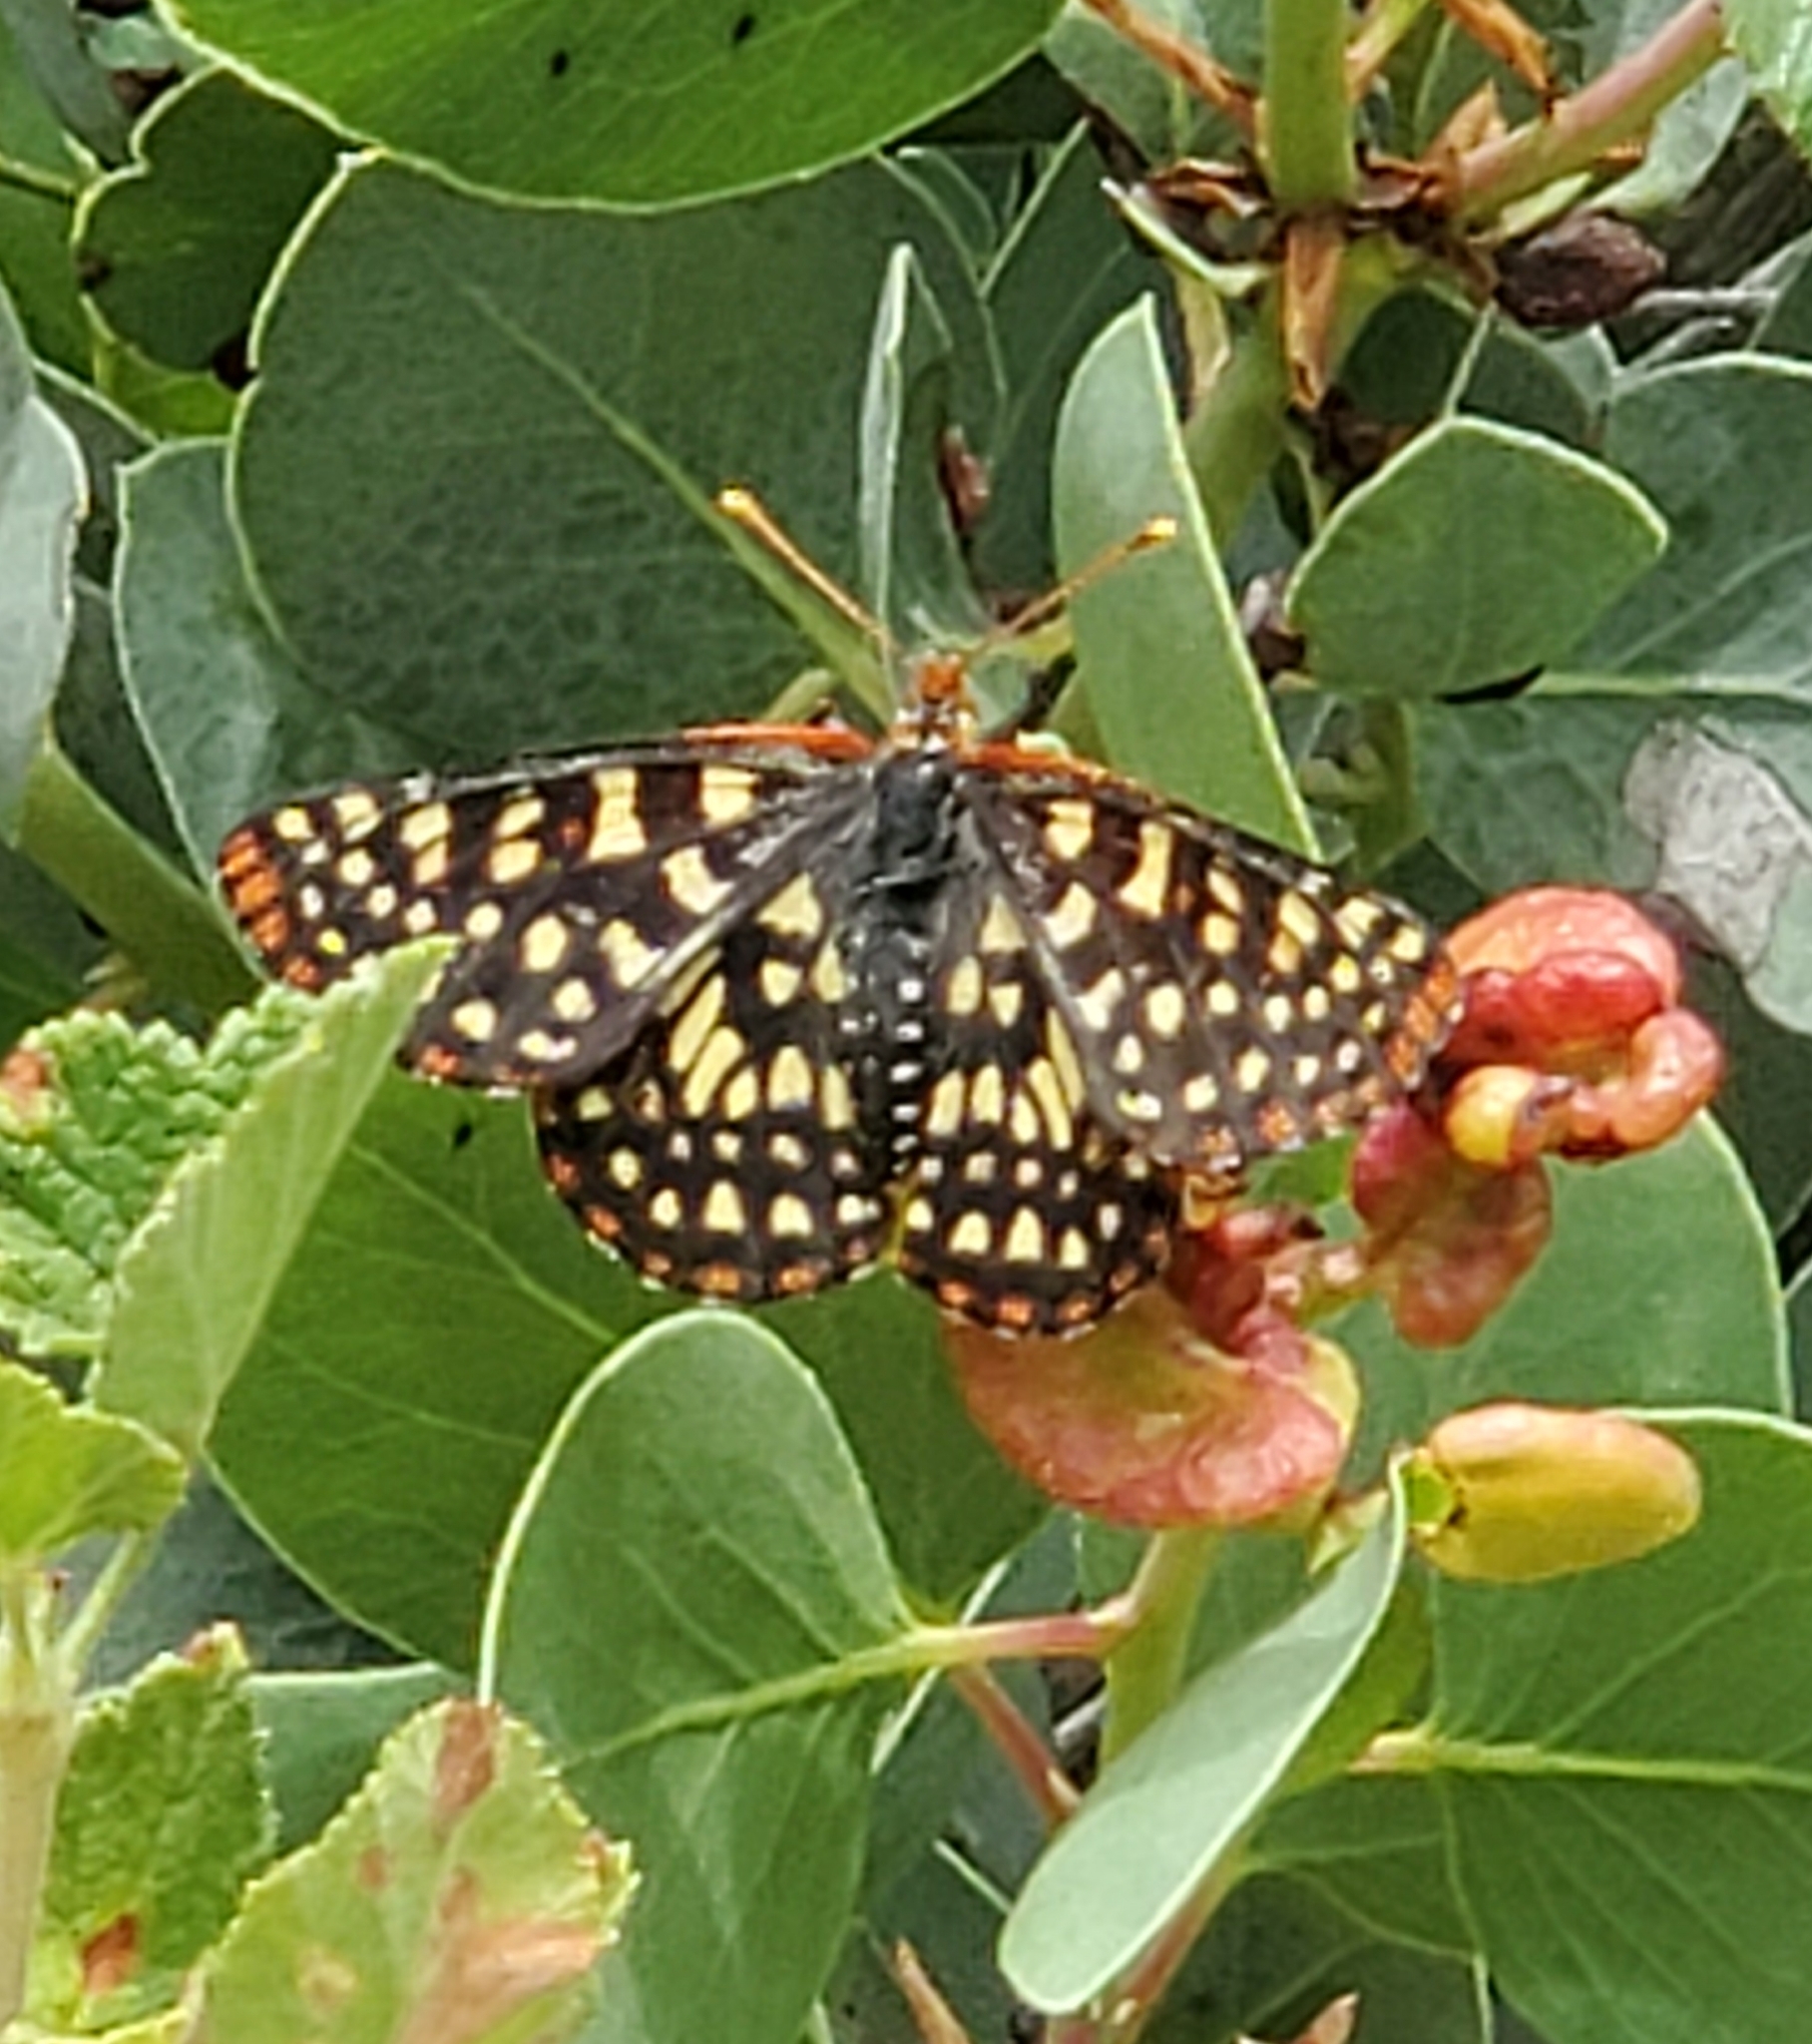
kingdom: Animalia
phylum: Arthropoda
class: Insecta
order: Lepidoptera
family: Nymphalidae
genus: Occidryas
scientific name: Occidryas chalcedona
